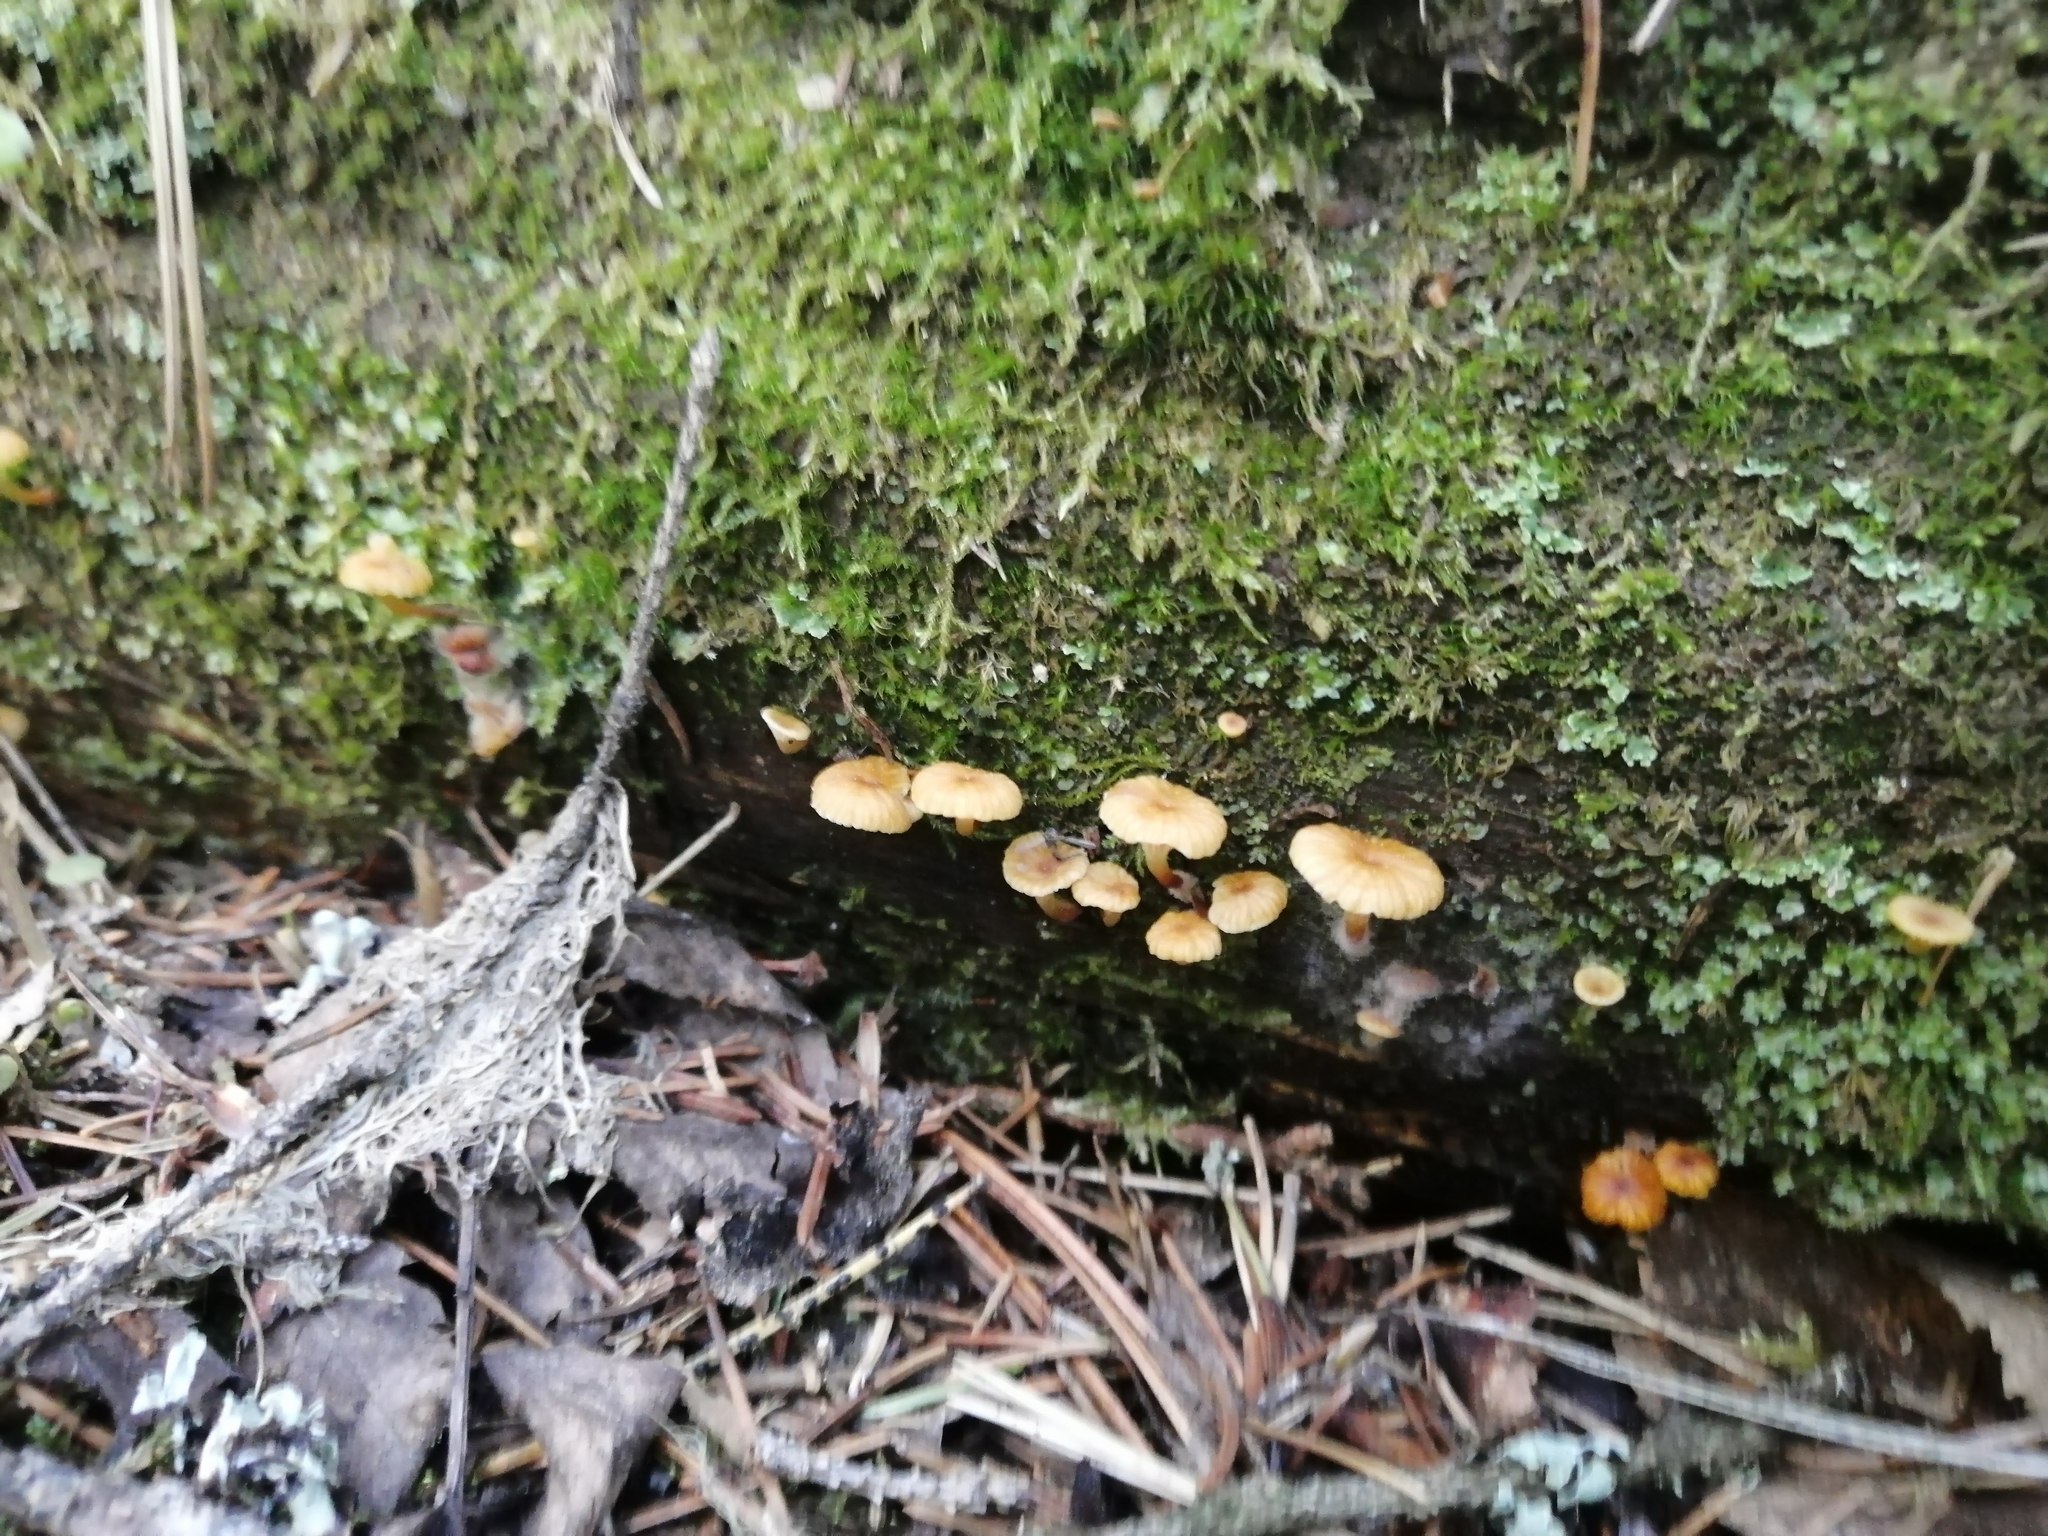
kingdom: Fungi
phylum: Basidiomycota
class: Agaricomycetes
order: Agaricales
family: Mycenaceae
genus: Xeromphalina
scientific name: Xeromphalina campanella
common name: Pinewood gingertail
